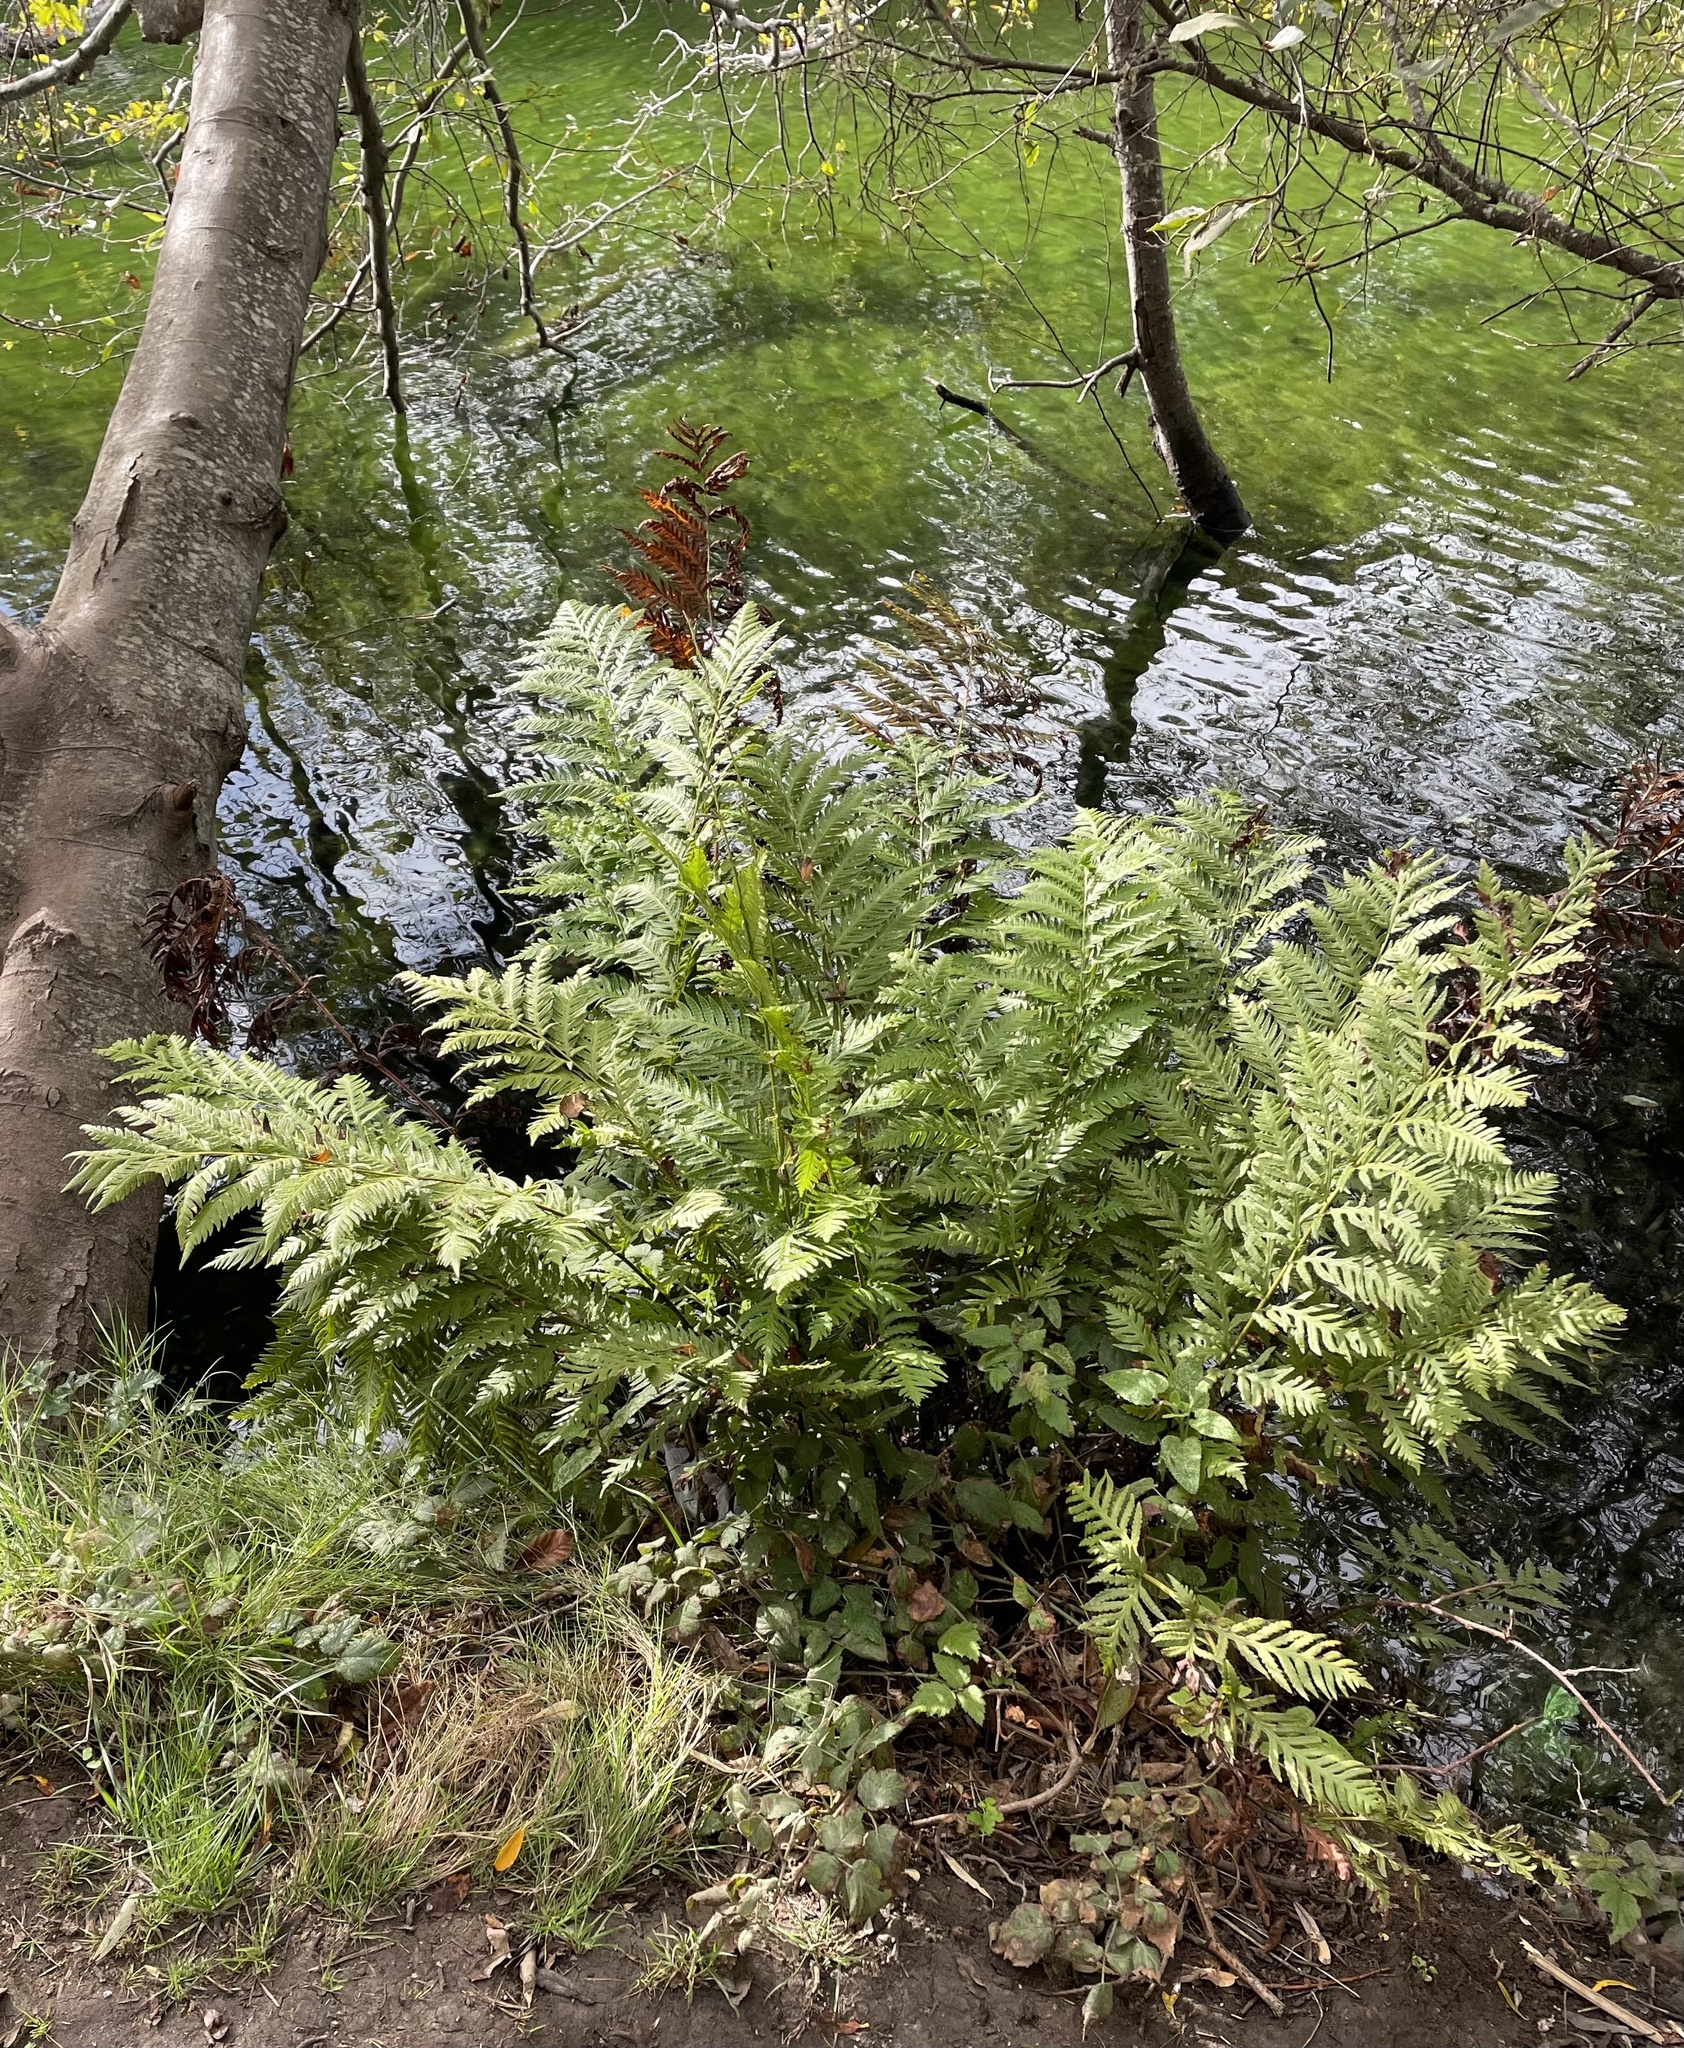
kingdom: Plantae
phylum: Tracheophyta
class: Polypodiopsida
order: Polypodiales
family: Blechnaceae
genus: Woodwardia
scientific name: Woodwardia fimbriata
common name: Giant chain fern
